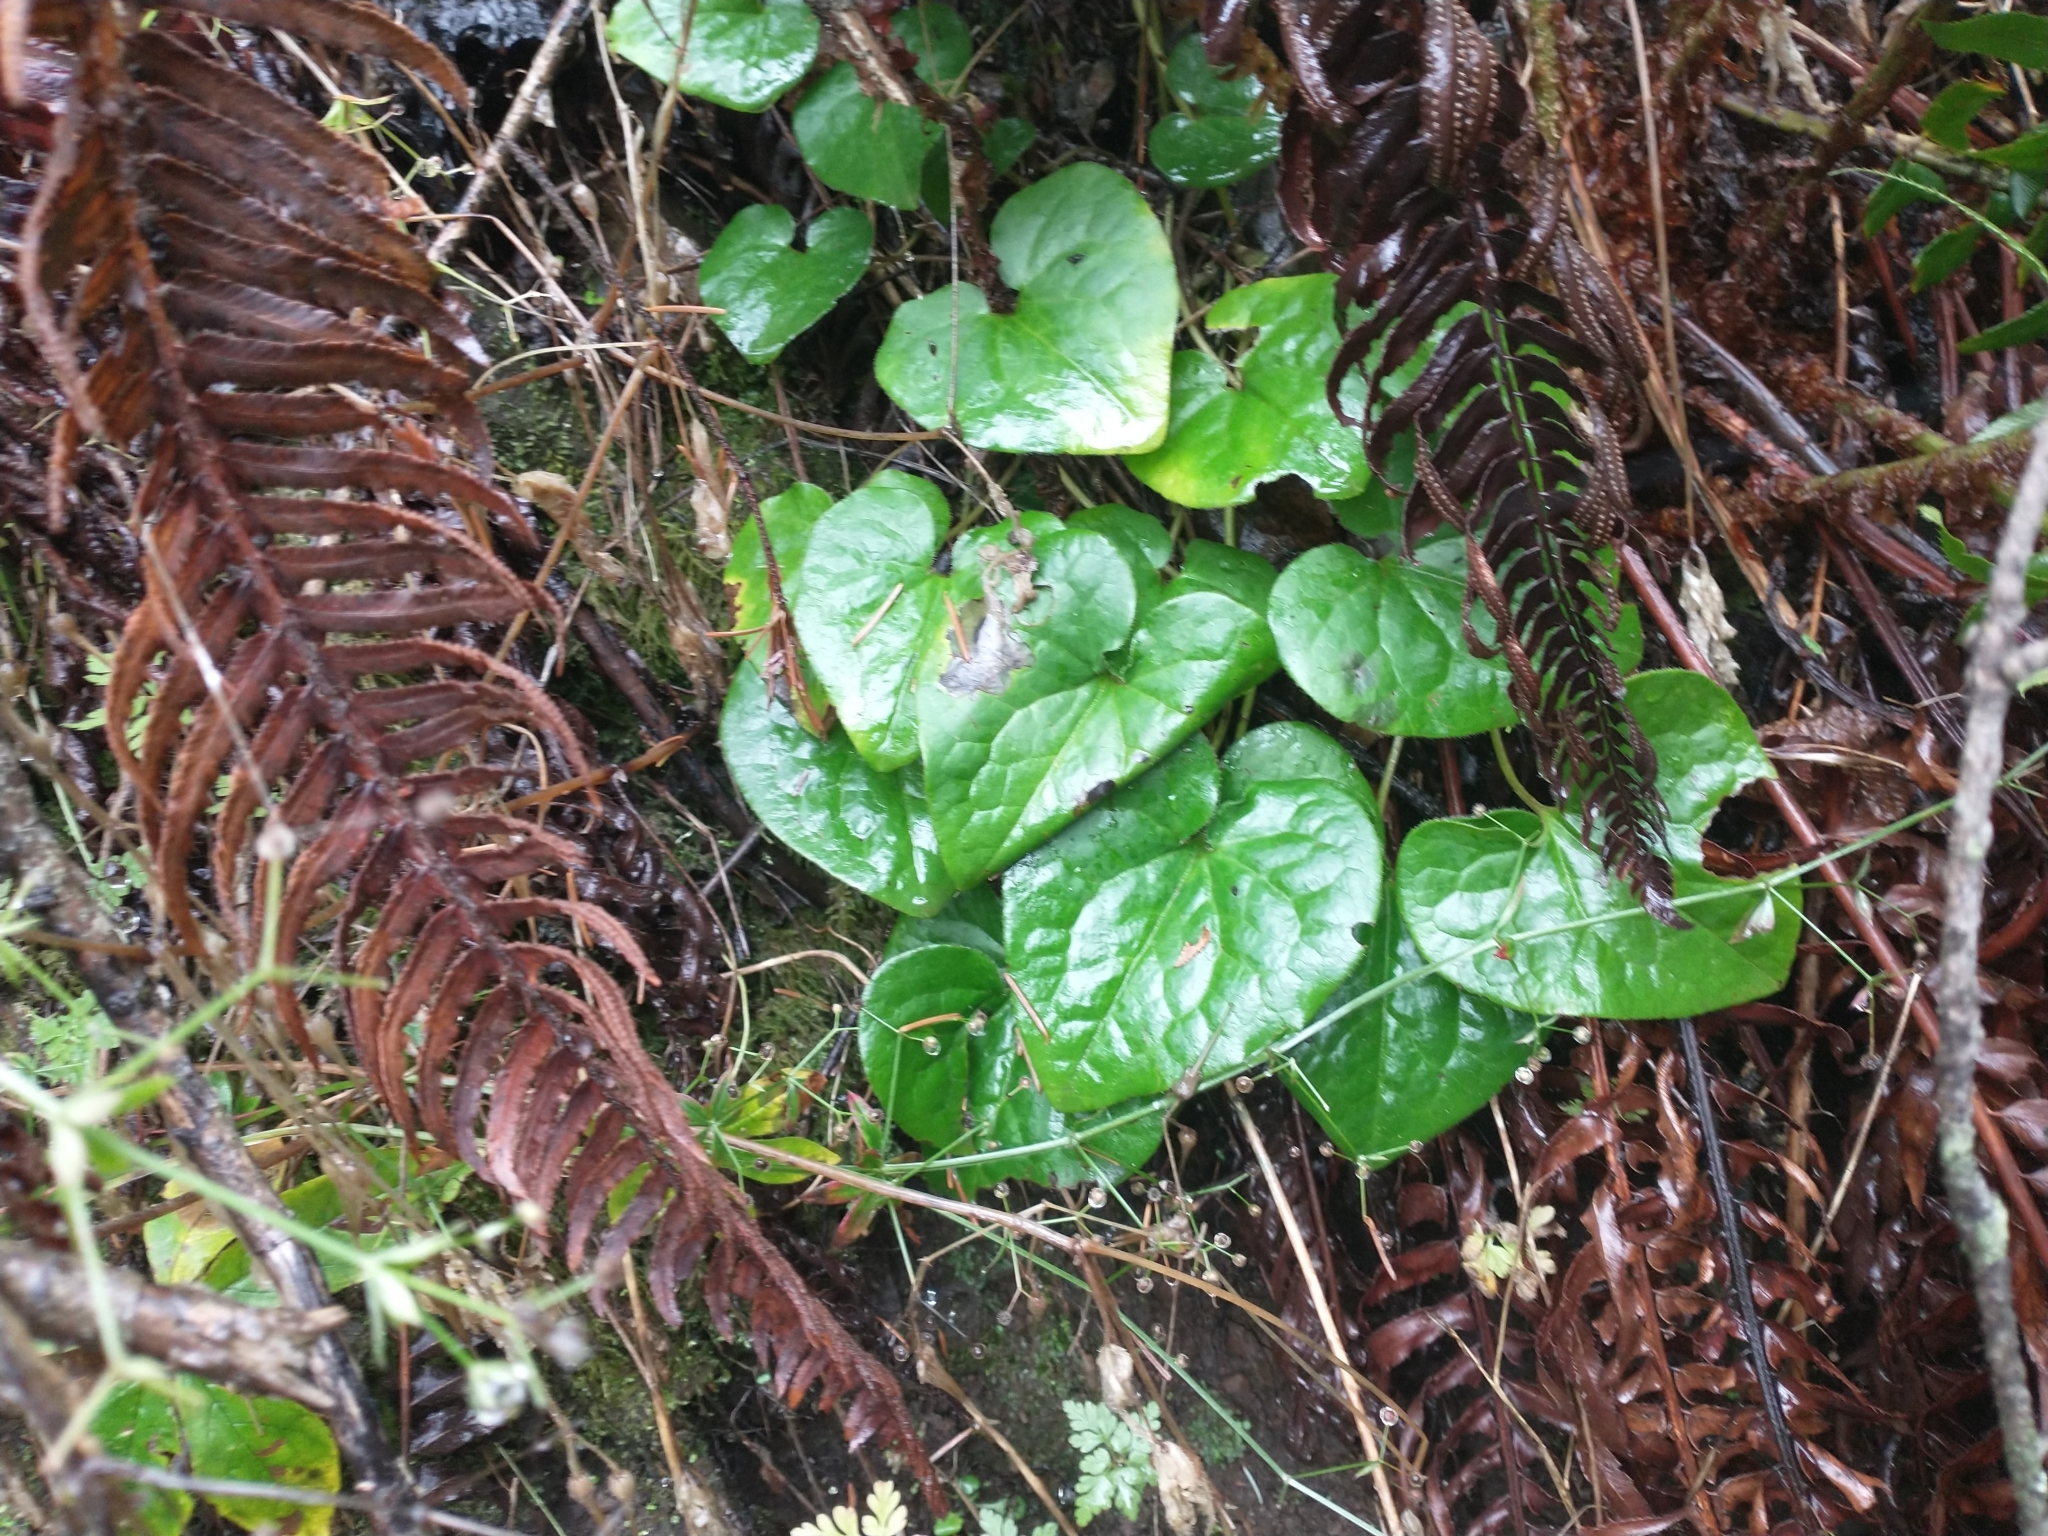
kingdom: Plantae
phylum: Tracheophyta
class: Magnoliopsida
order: Piperales
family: Aristolochiaceae
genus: Asarum
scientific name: Asarum caudatum
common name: Wild ginger
